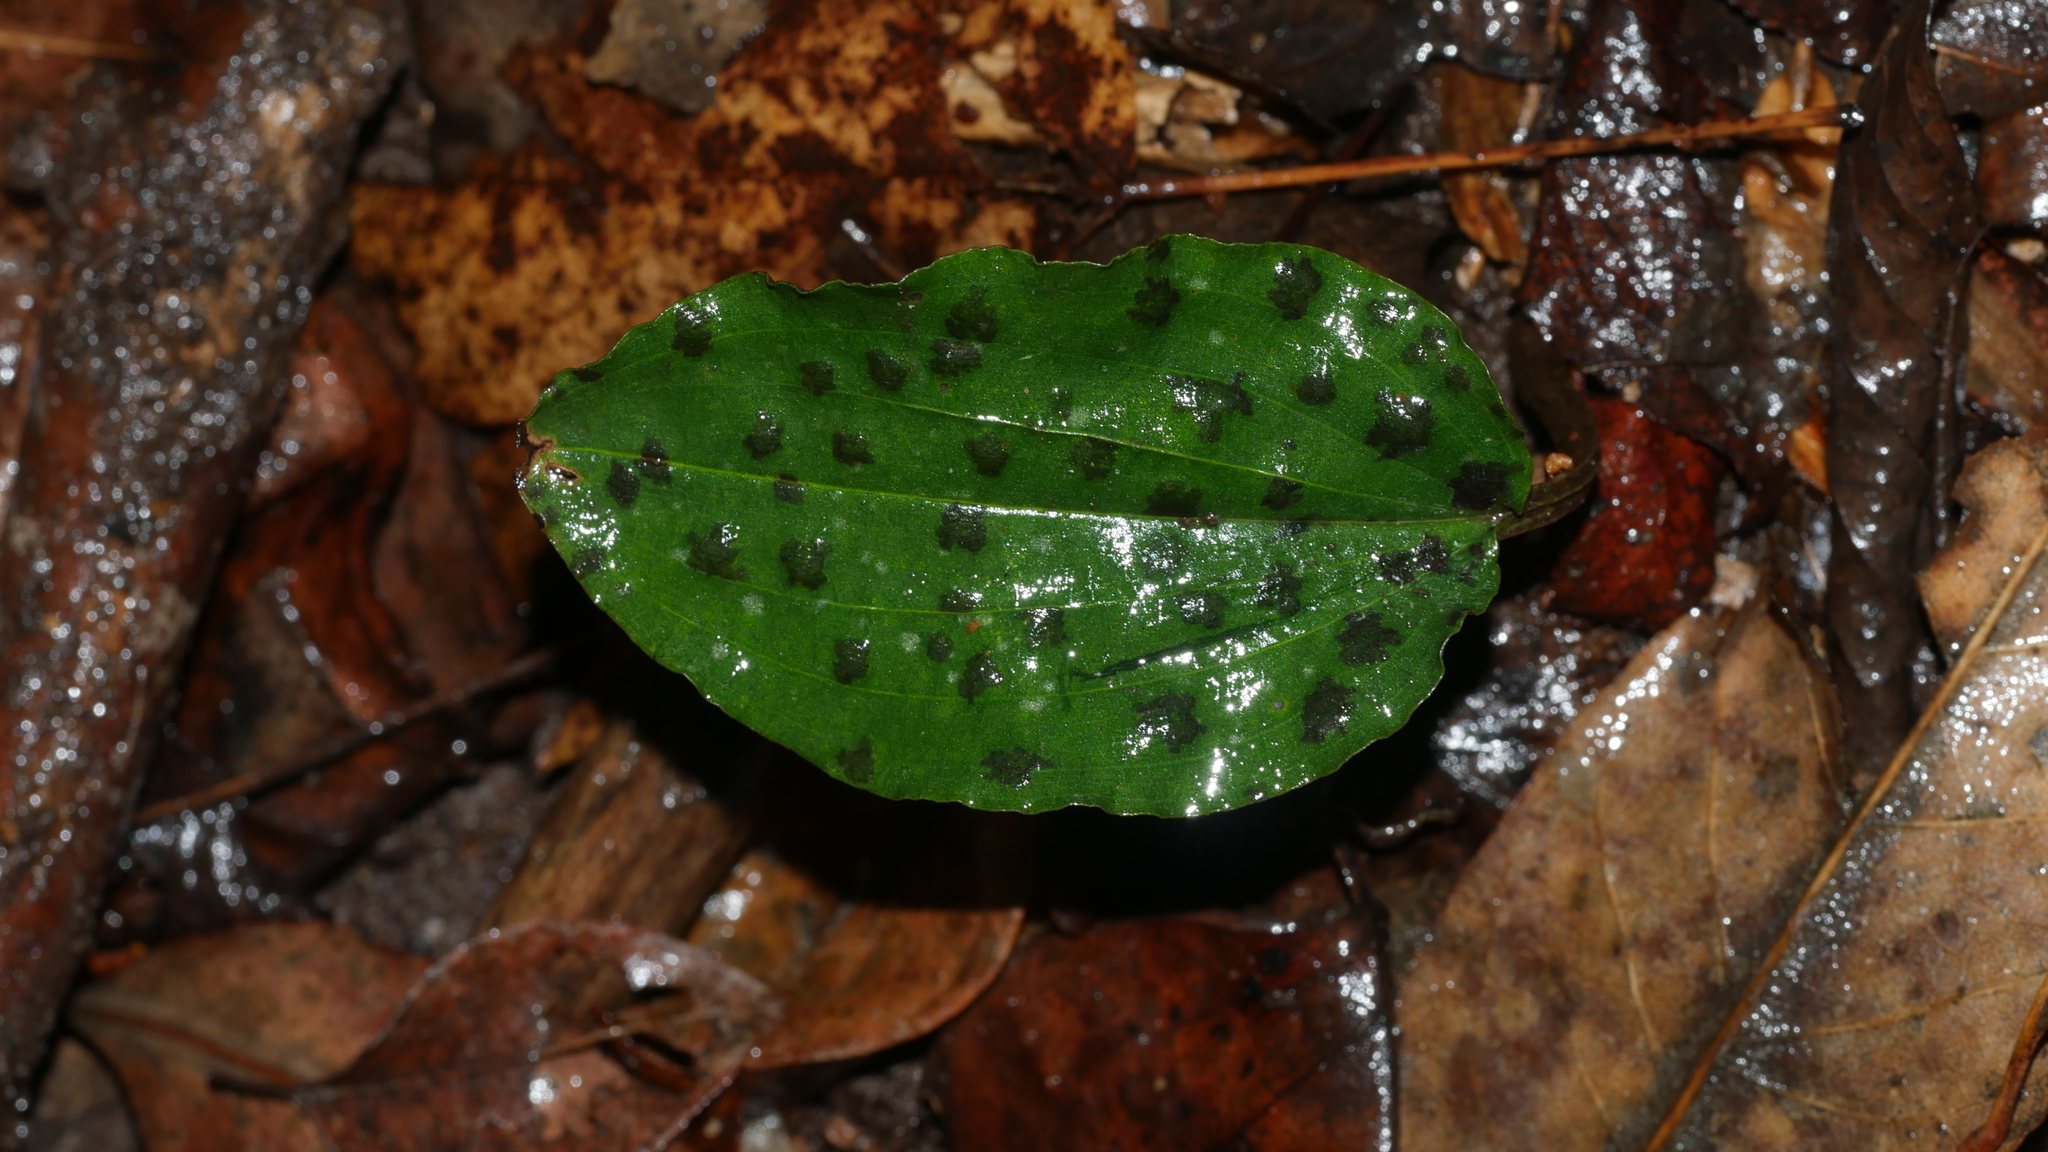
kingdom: Plantae
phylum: Tracheophyta
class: Liliopsida
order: Asparagales
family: Orchidaceae
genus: Tipularia
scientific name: Tipularia discolor
